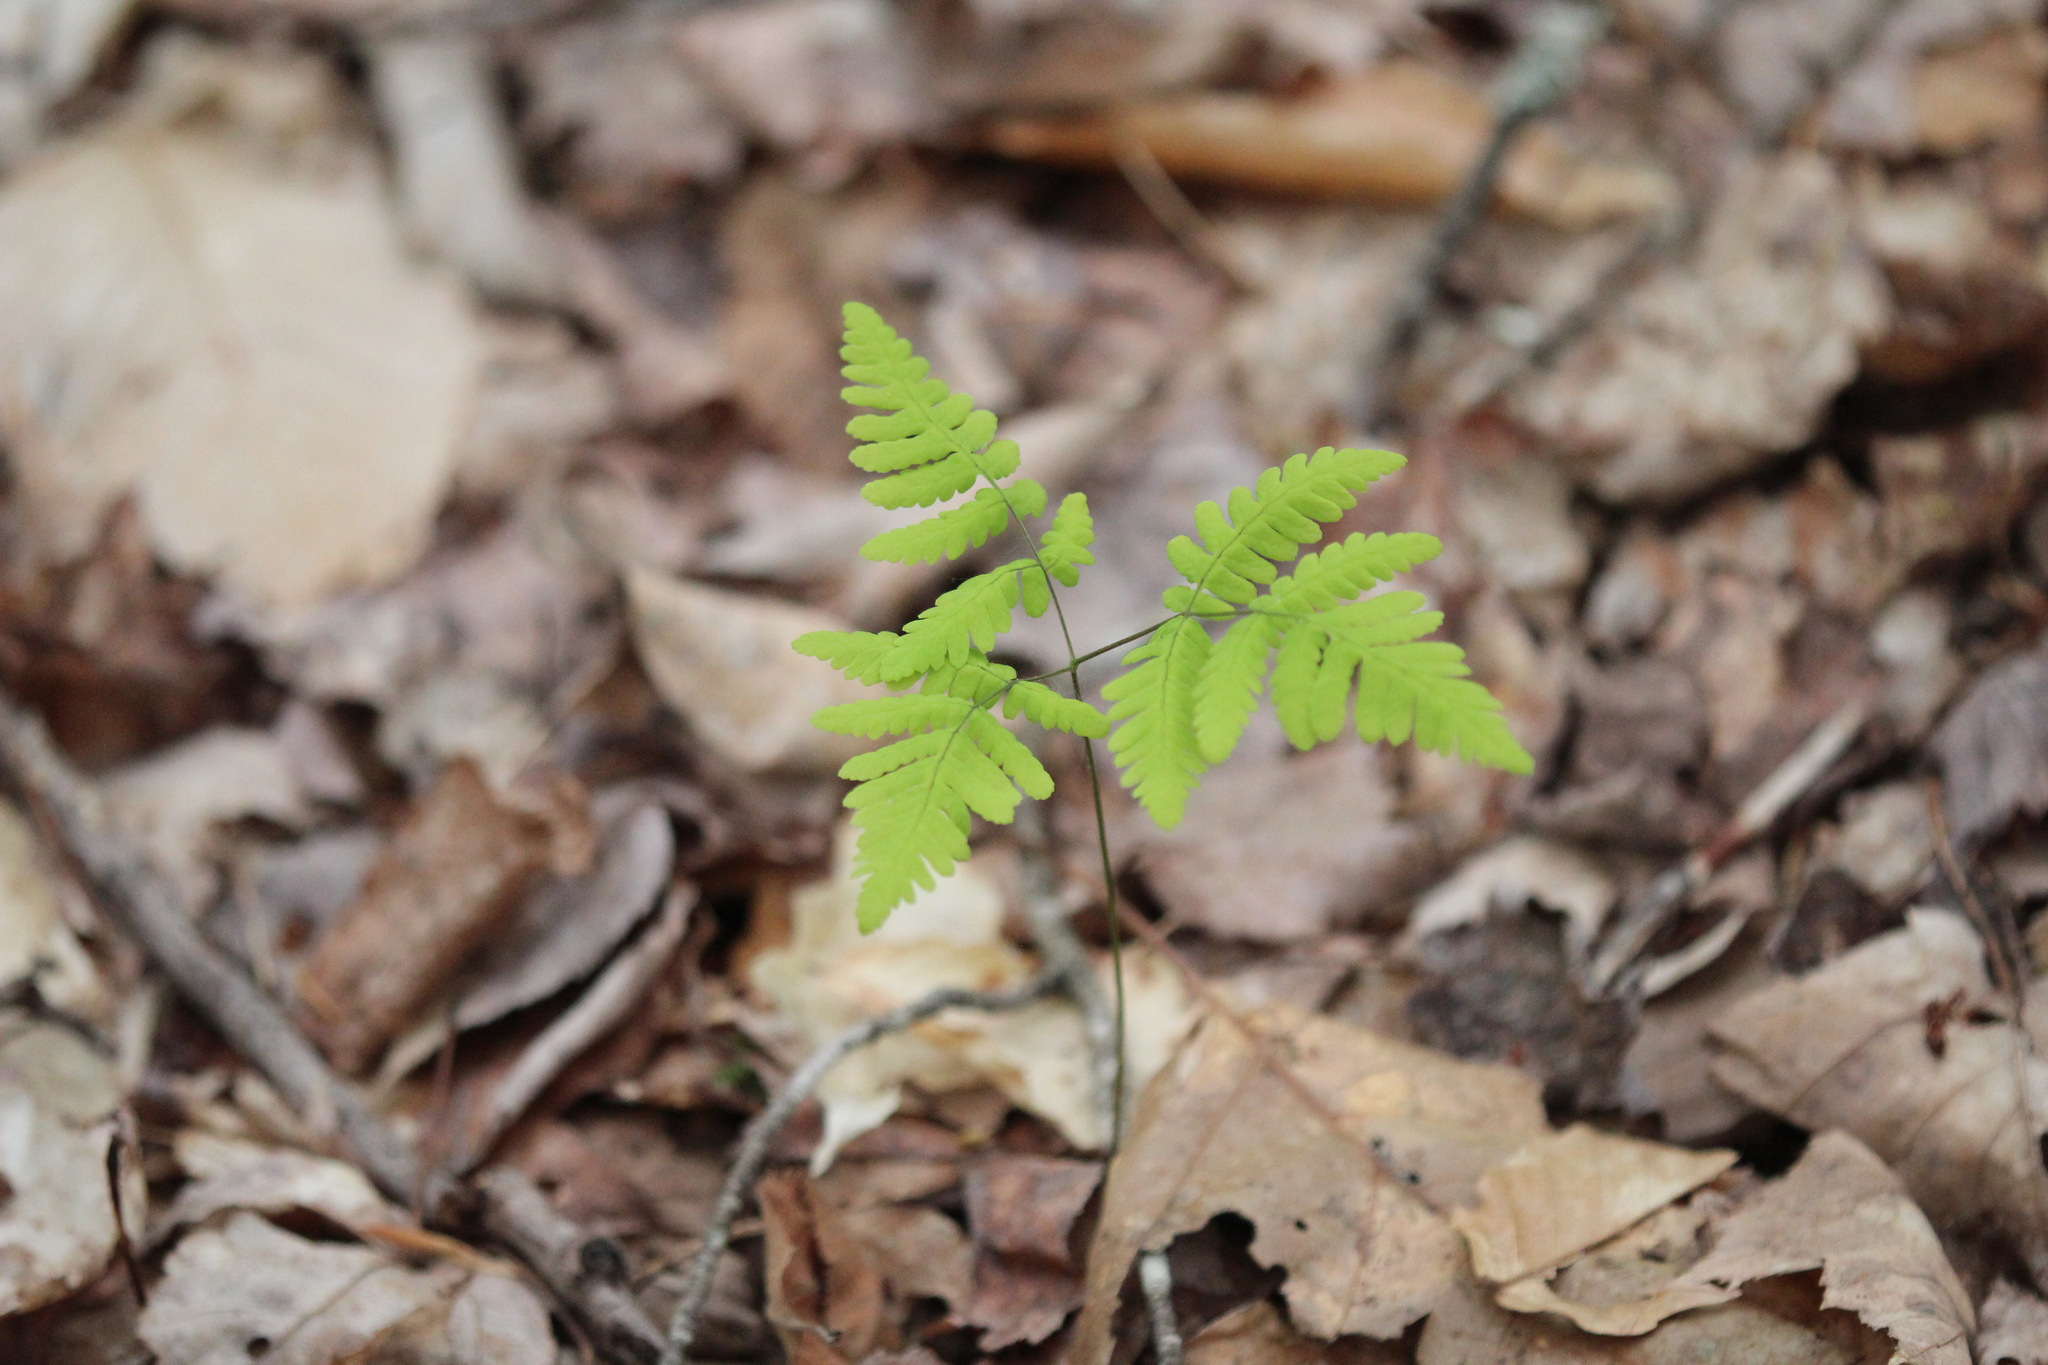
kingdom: Plantae
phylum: Tracheophyta
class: Polypodiopsida
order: Polypodiales
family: Cystopteridaceae
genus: Gymnocarpium
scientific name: Gymnocarpium dryopteris
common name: Oak fern
